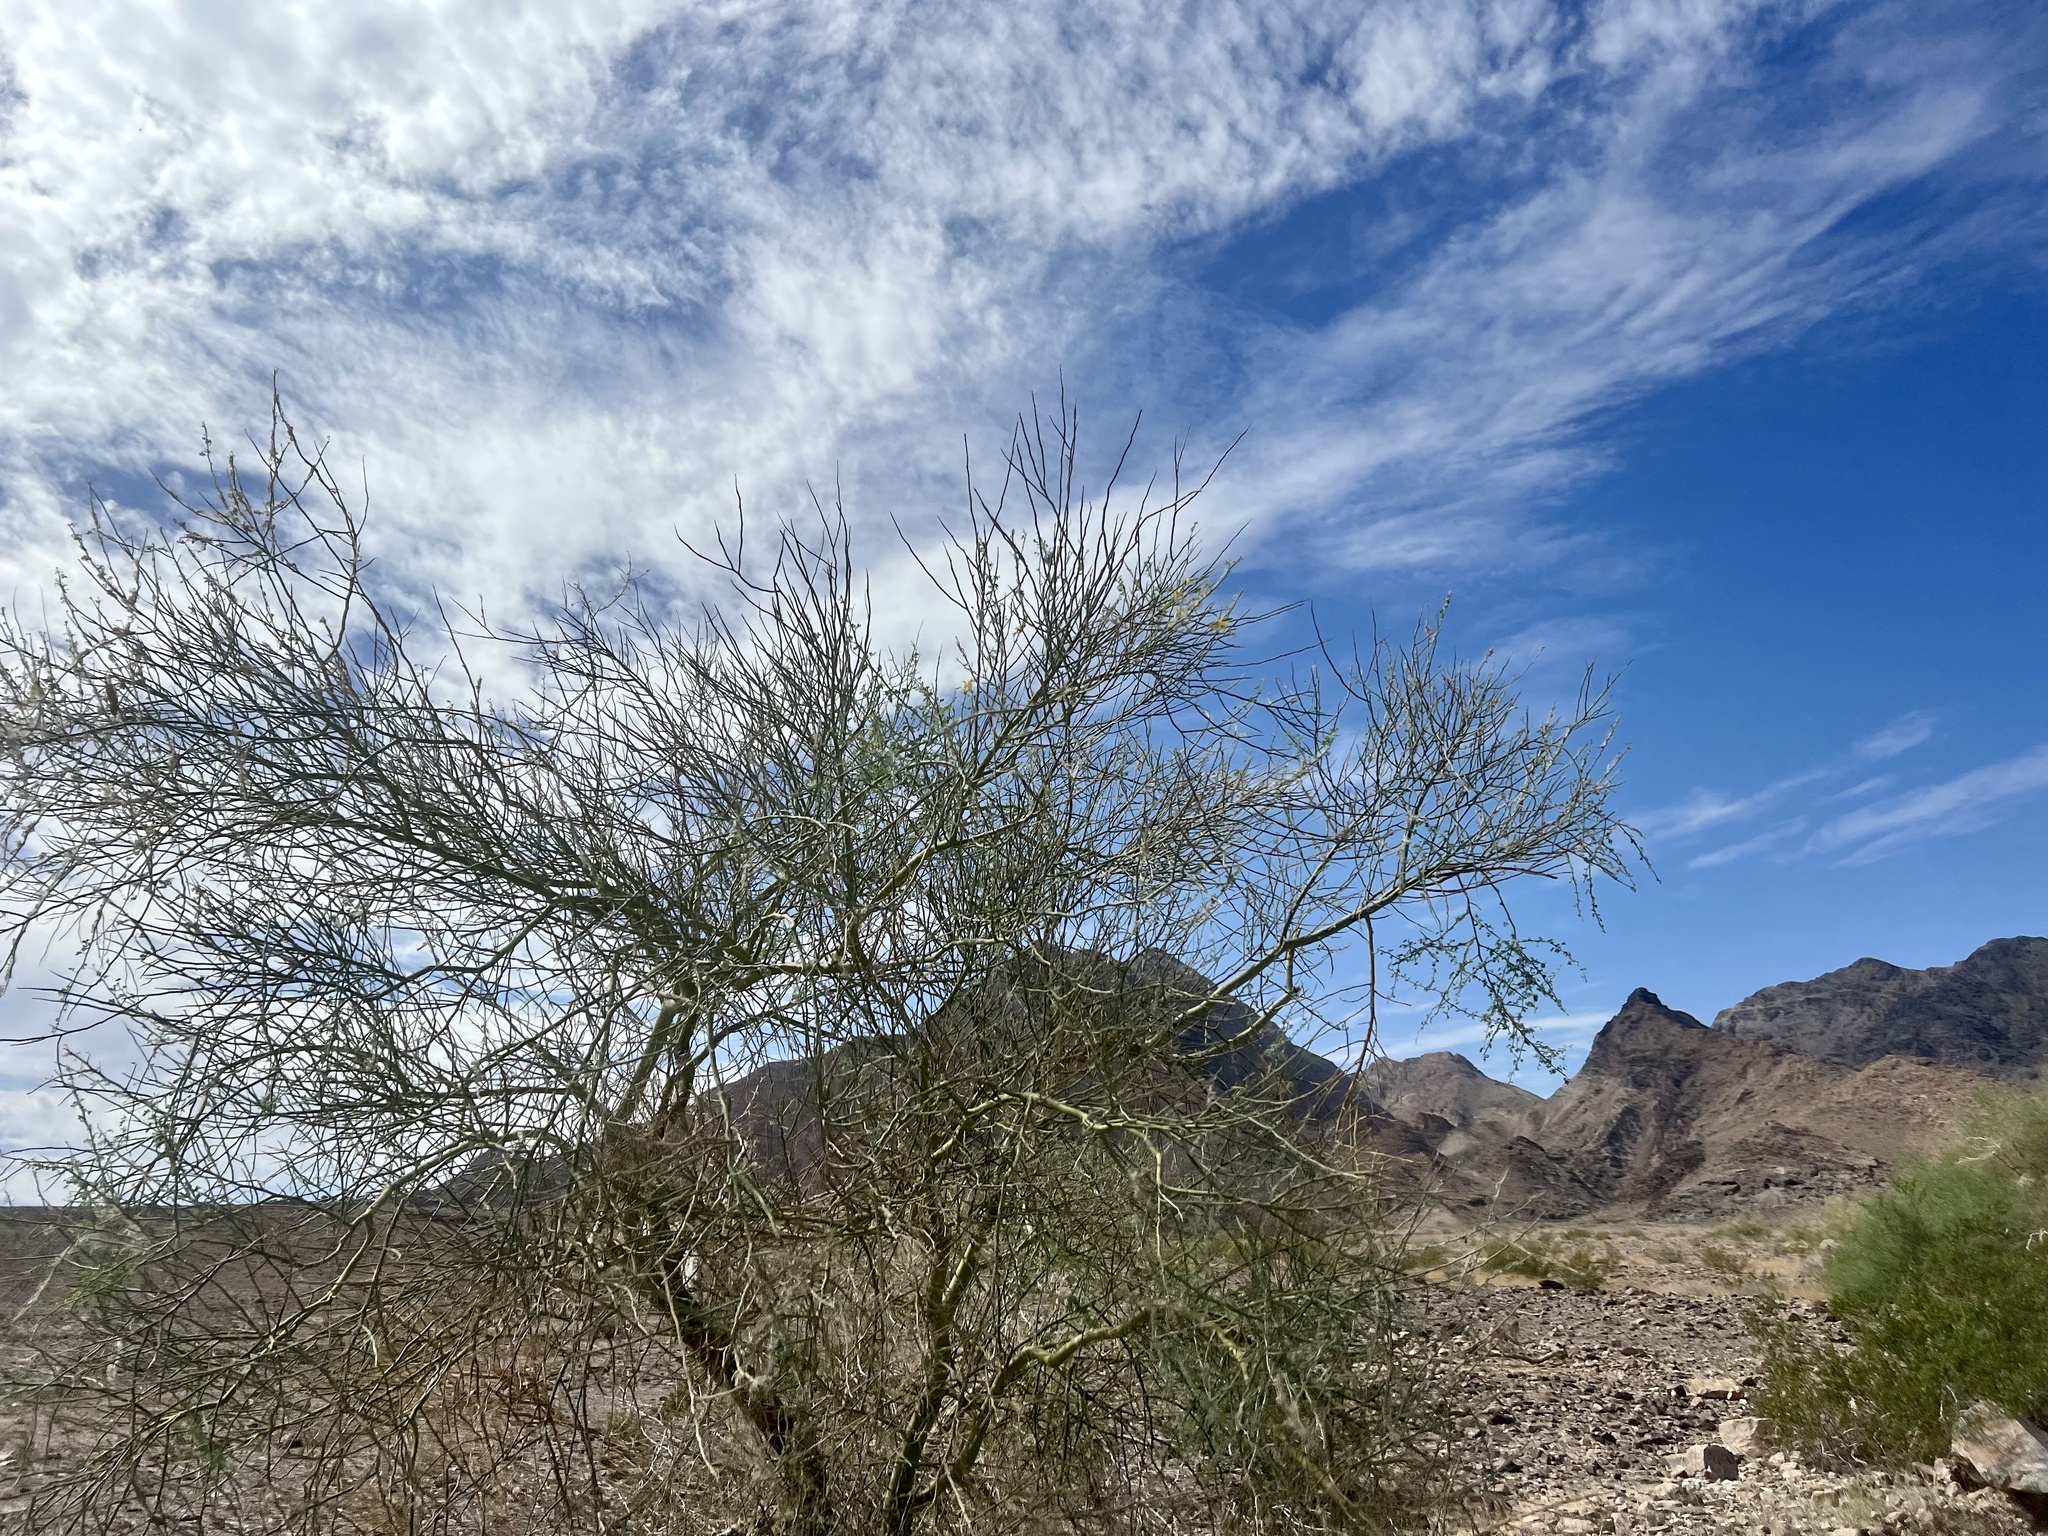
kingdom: Plantae
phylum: Tracheophyta
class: Magnoliopsida
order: Fabales
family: Fabaceae
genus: Parkinsonia
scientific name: Parkinsonia florida
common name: Blue paloverde
